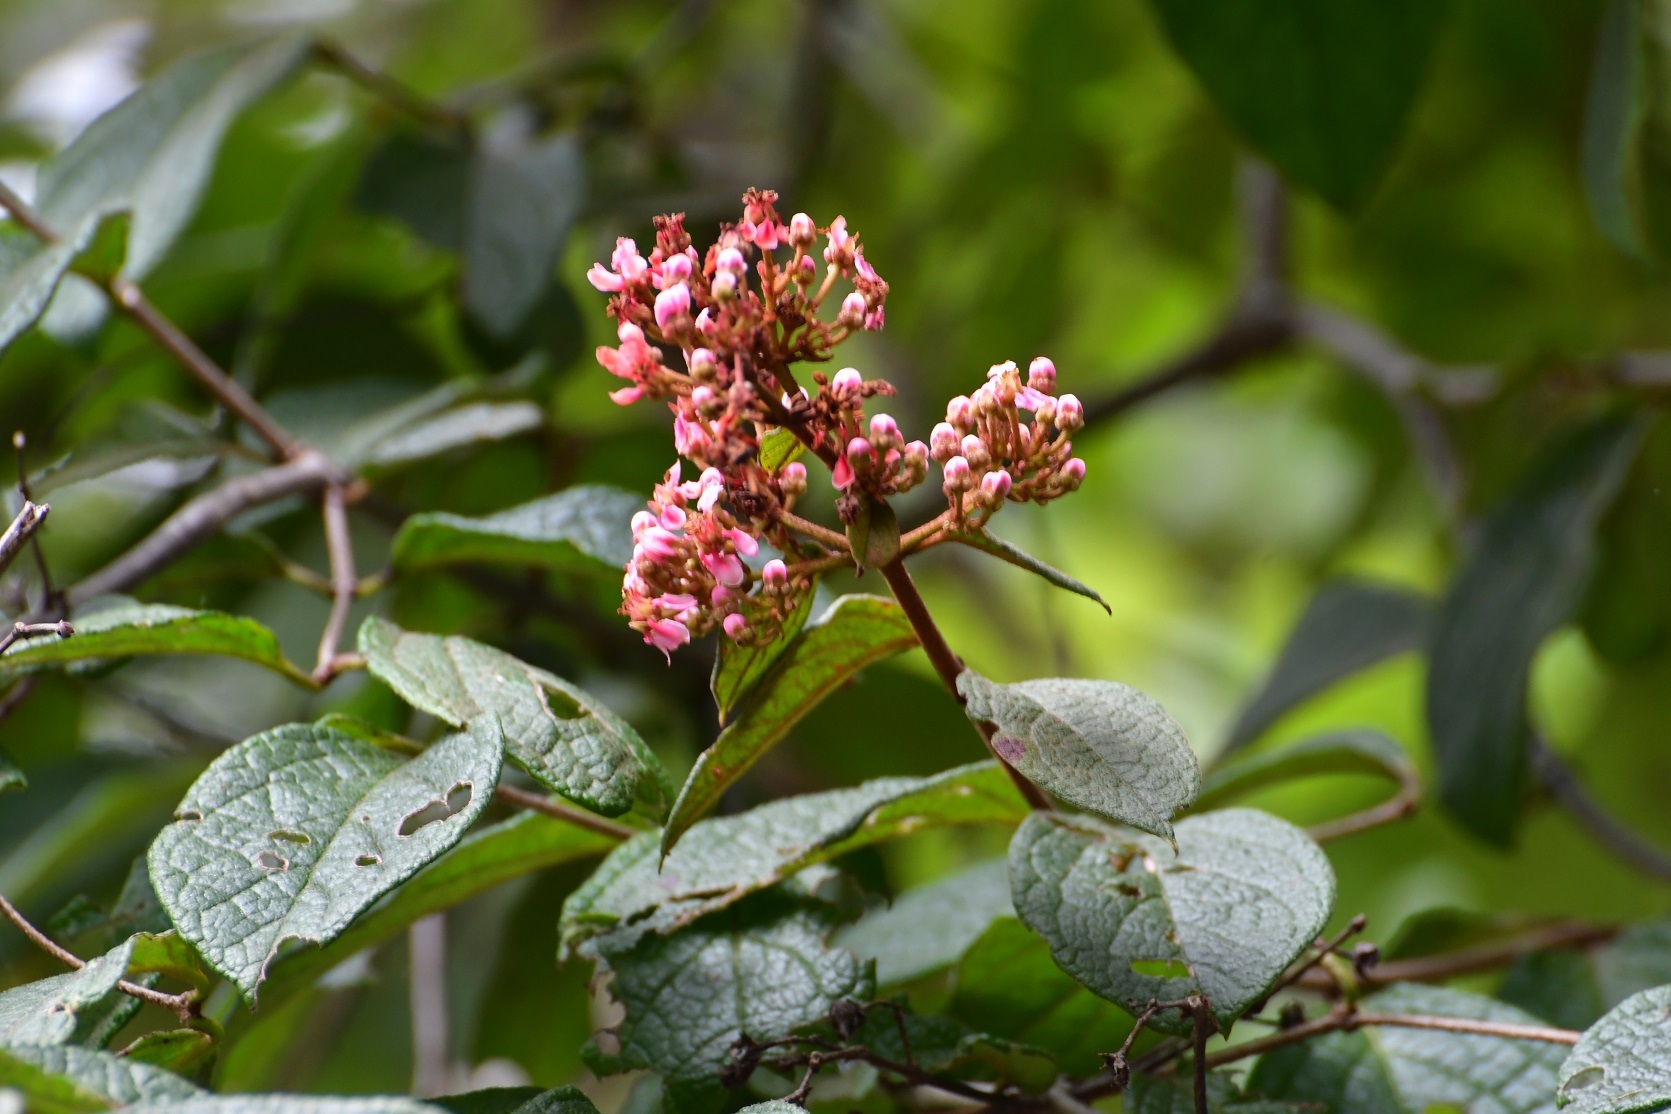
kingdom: Plantae
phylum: Tracheophyta
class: Magnoliopsida
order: Malpighiales
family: Malpighiaceae
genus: Heteropterys
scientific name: Heteropterys brachiata
